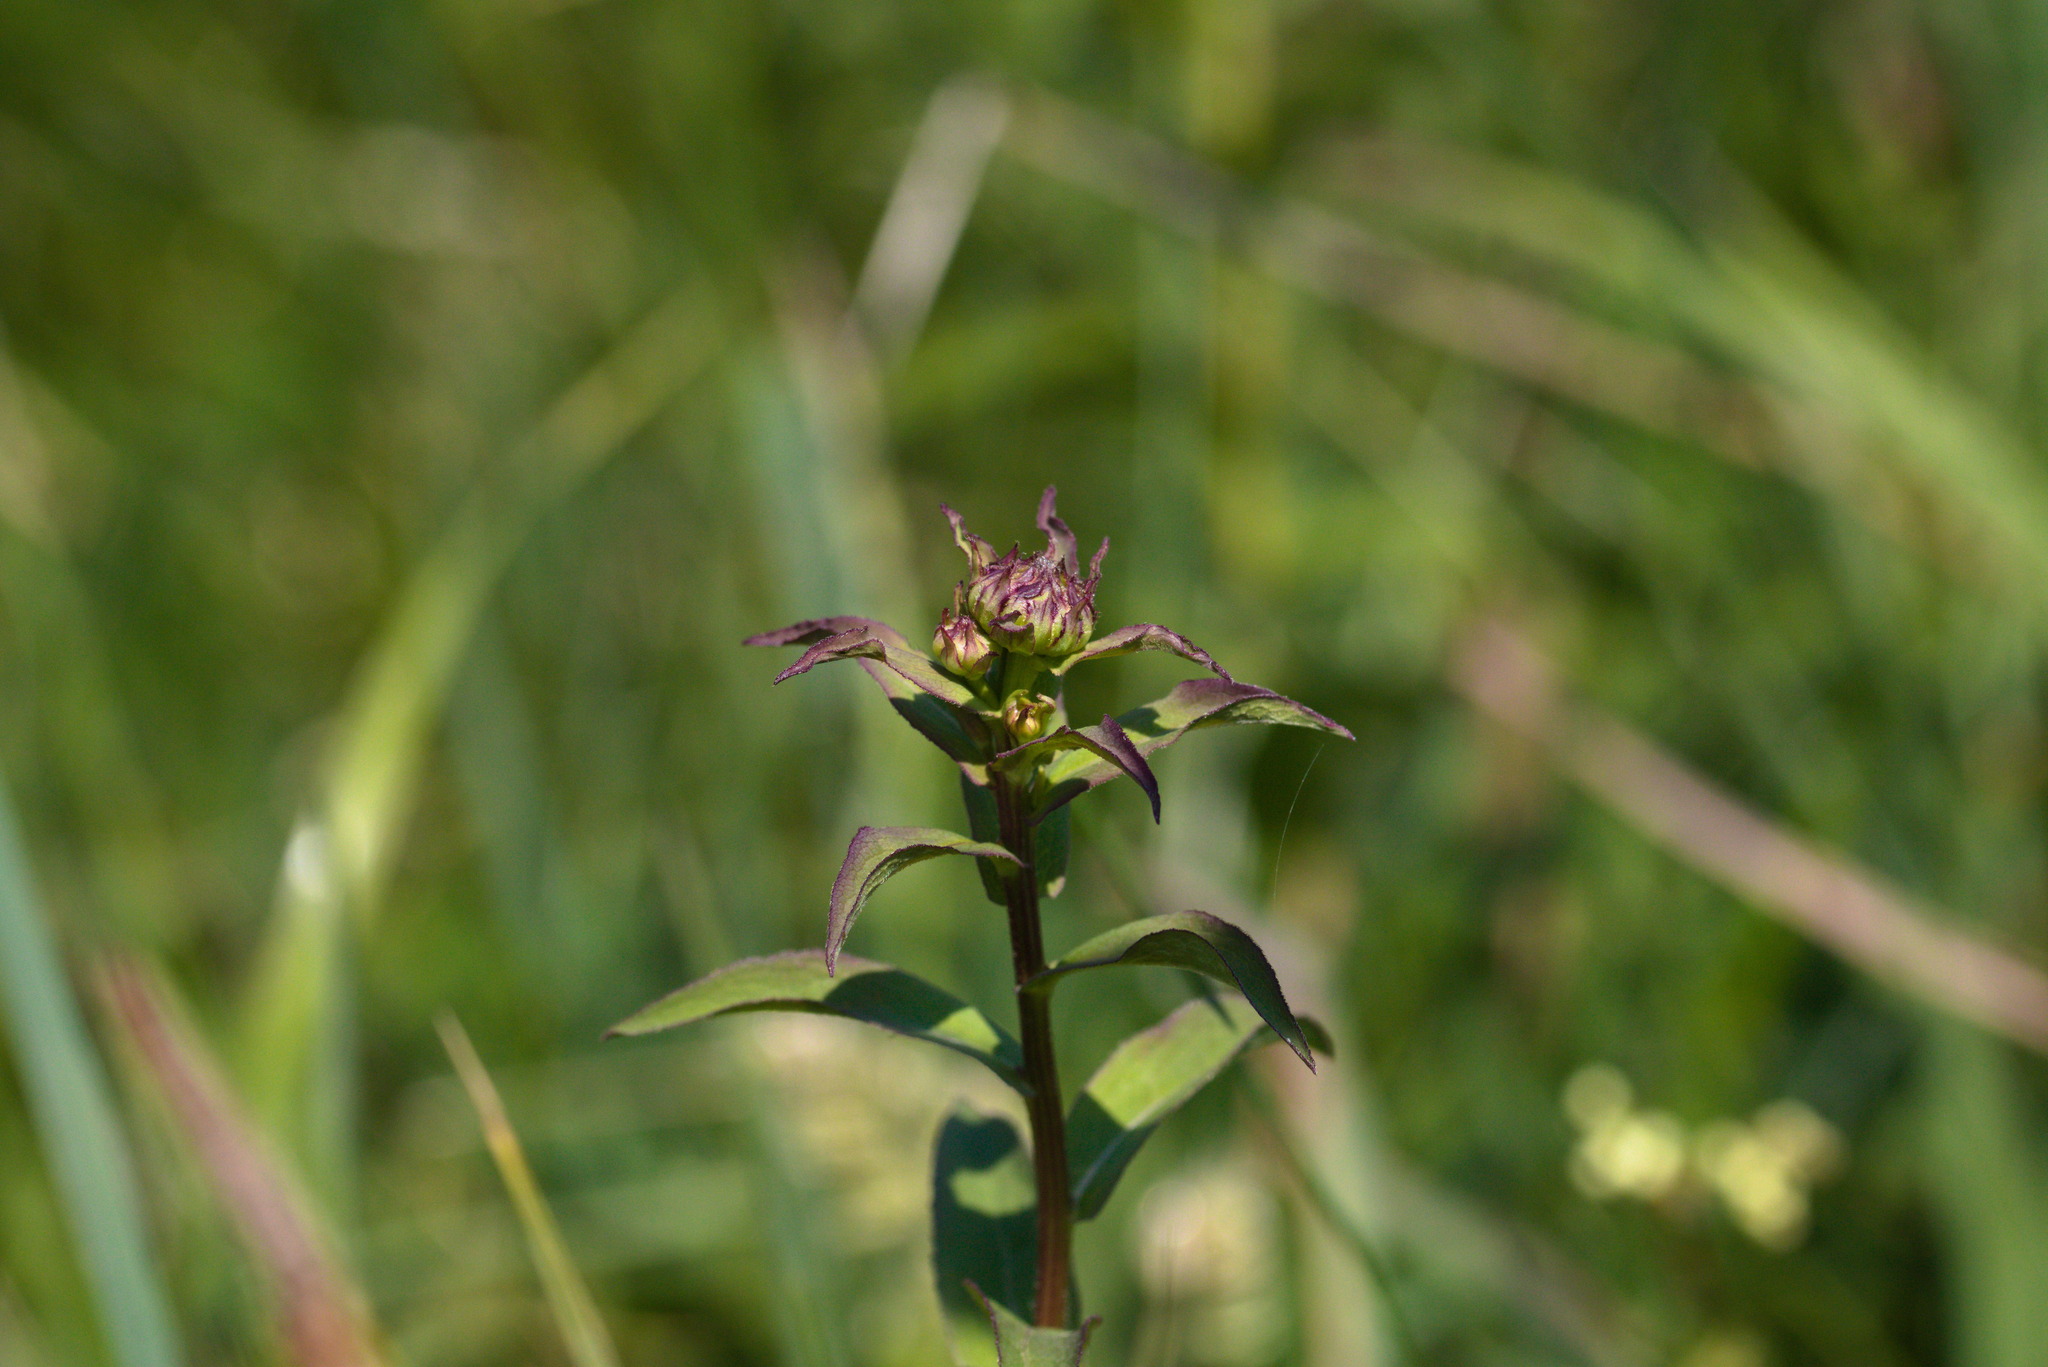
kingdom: Plantae
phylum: Tracheophyta
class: Magnoliopsida
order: Asterales
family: Asteraceae
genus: Pentanema
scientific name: Pentanema salicinum
